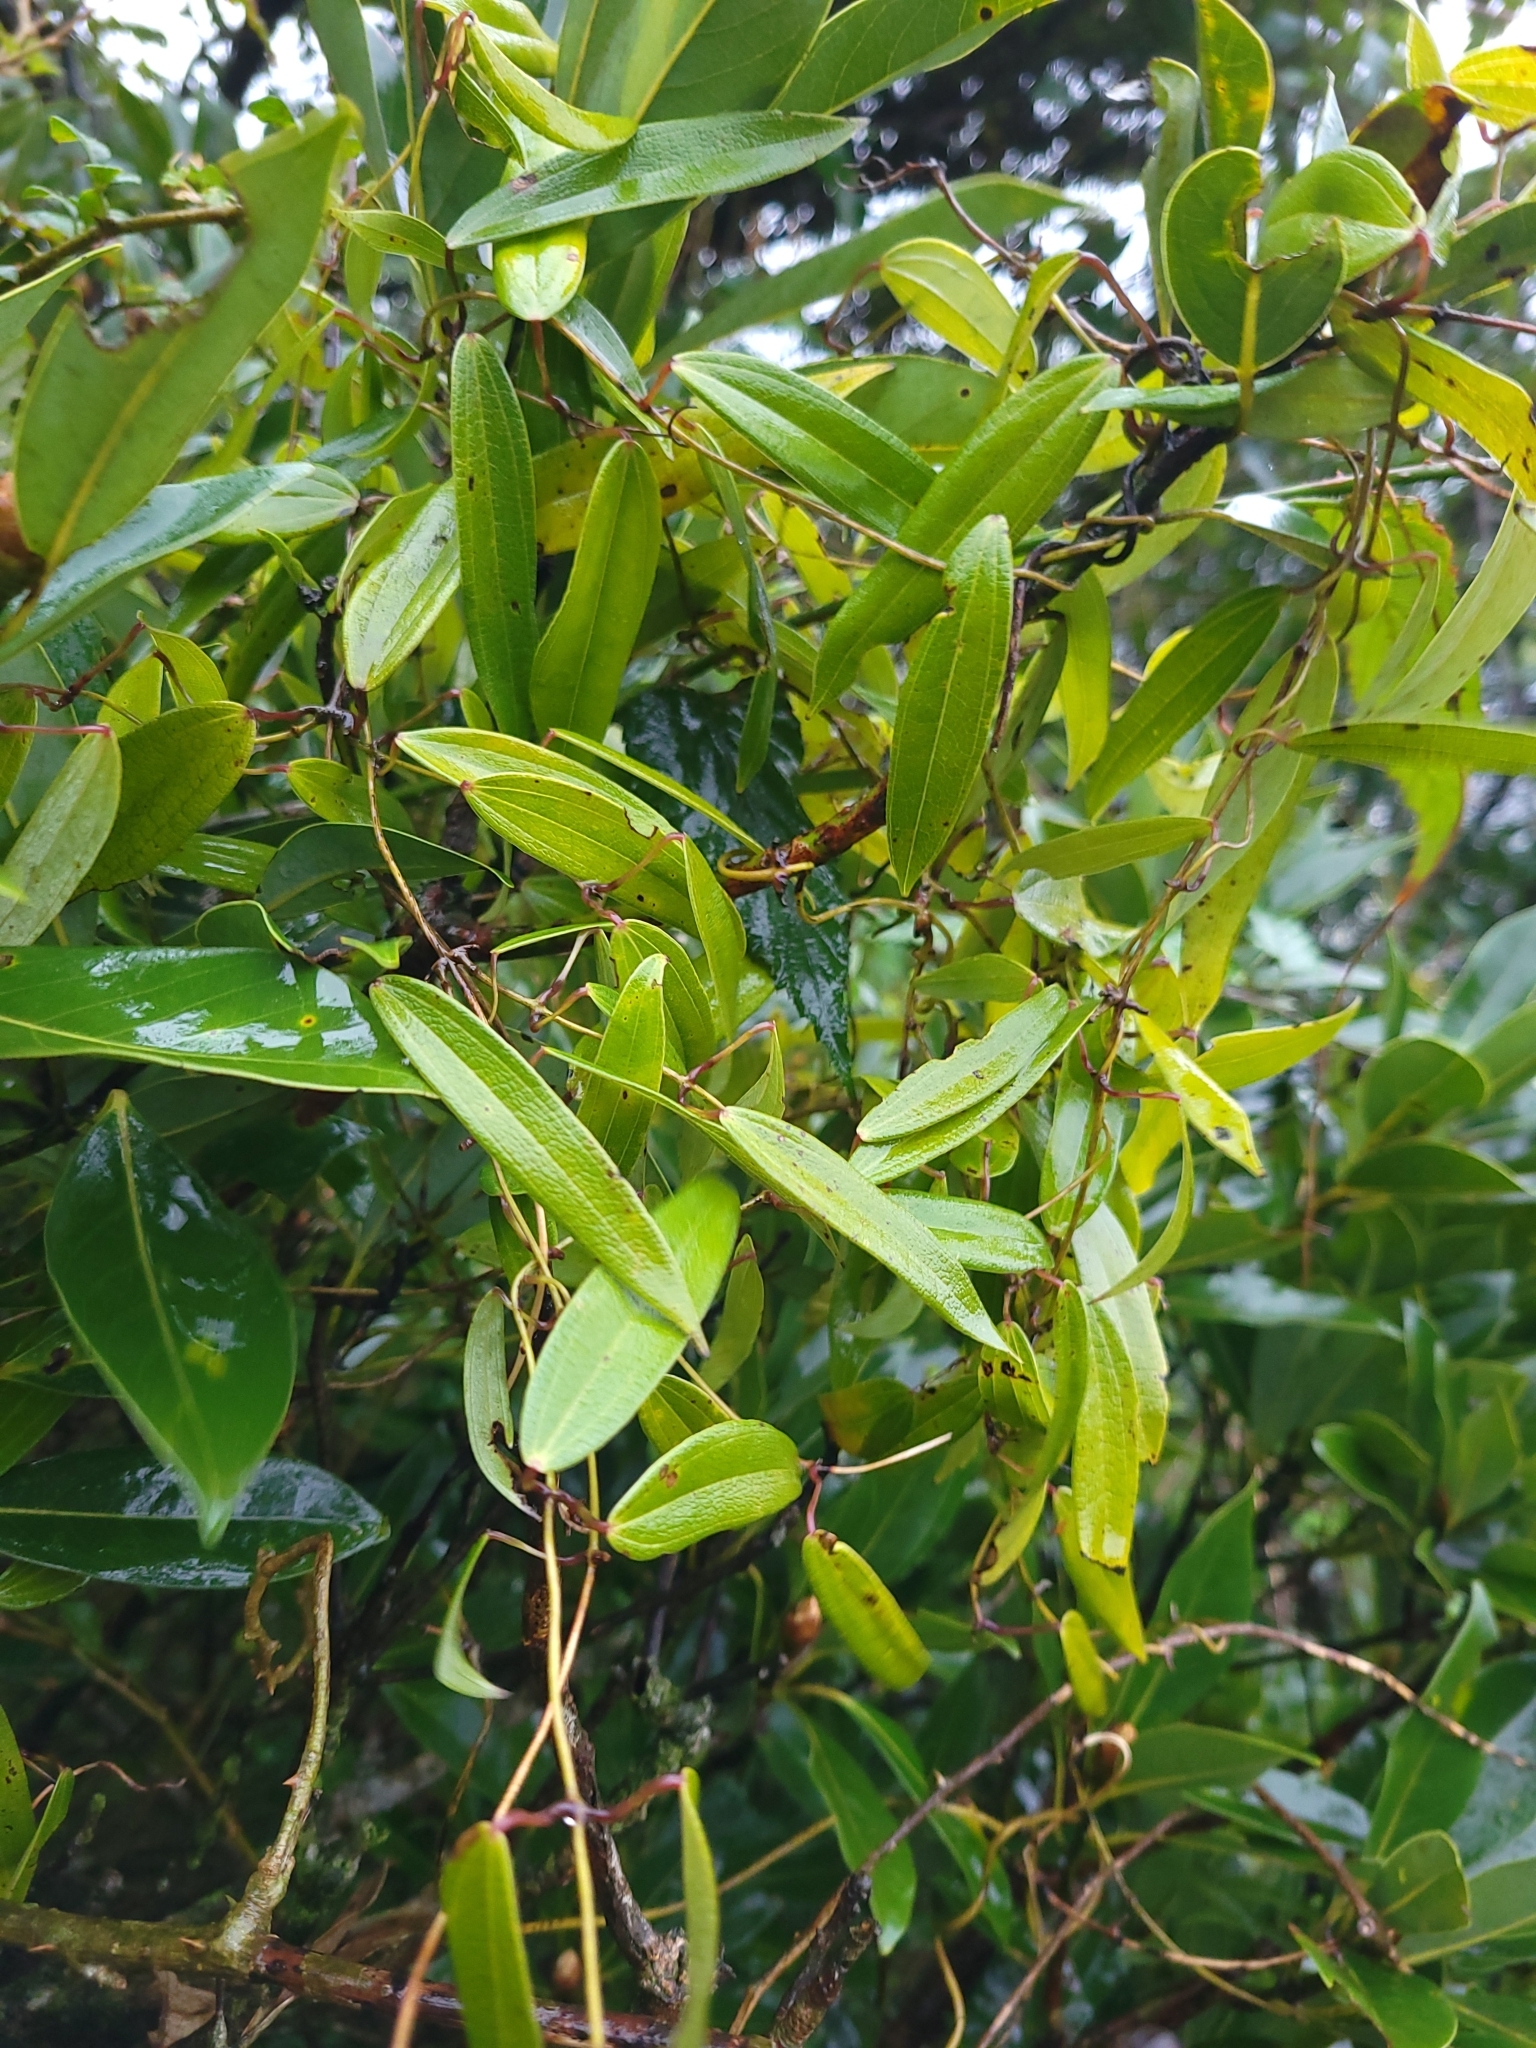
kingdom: Plantae
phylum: Tracheophyta
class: Liliopsida
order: Dioscoreales
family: Dioscoreaceae
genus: Dioscorea
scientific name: Dioscorea cirrhosa
